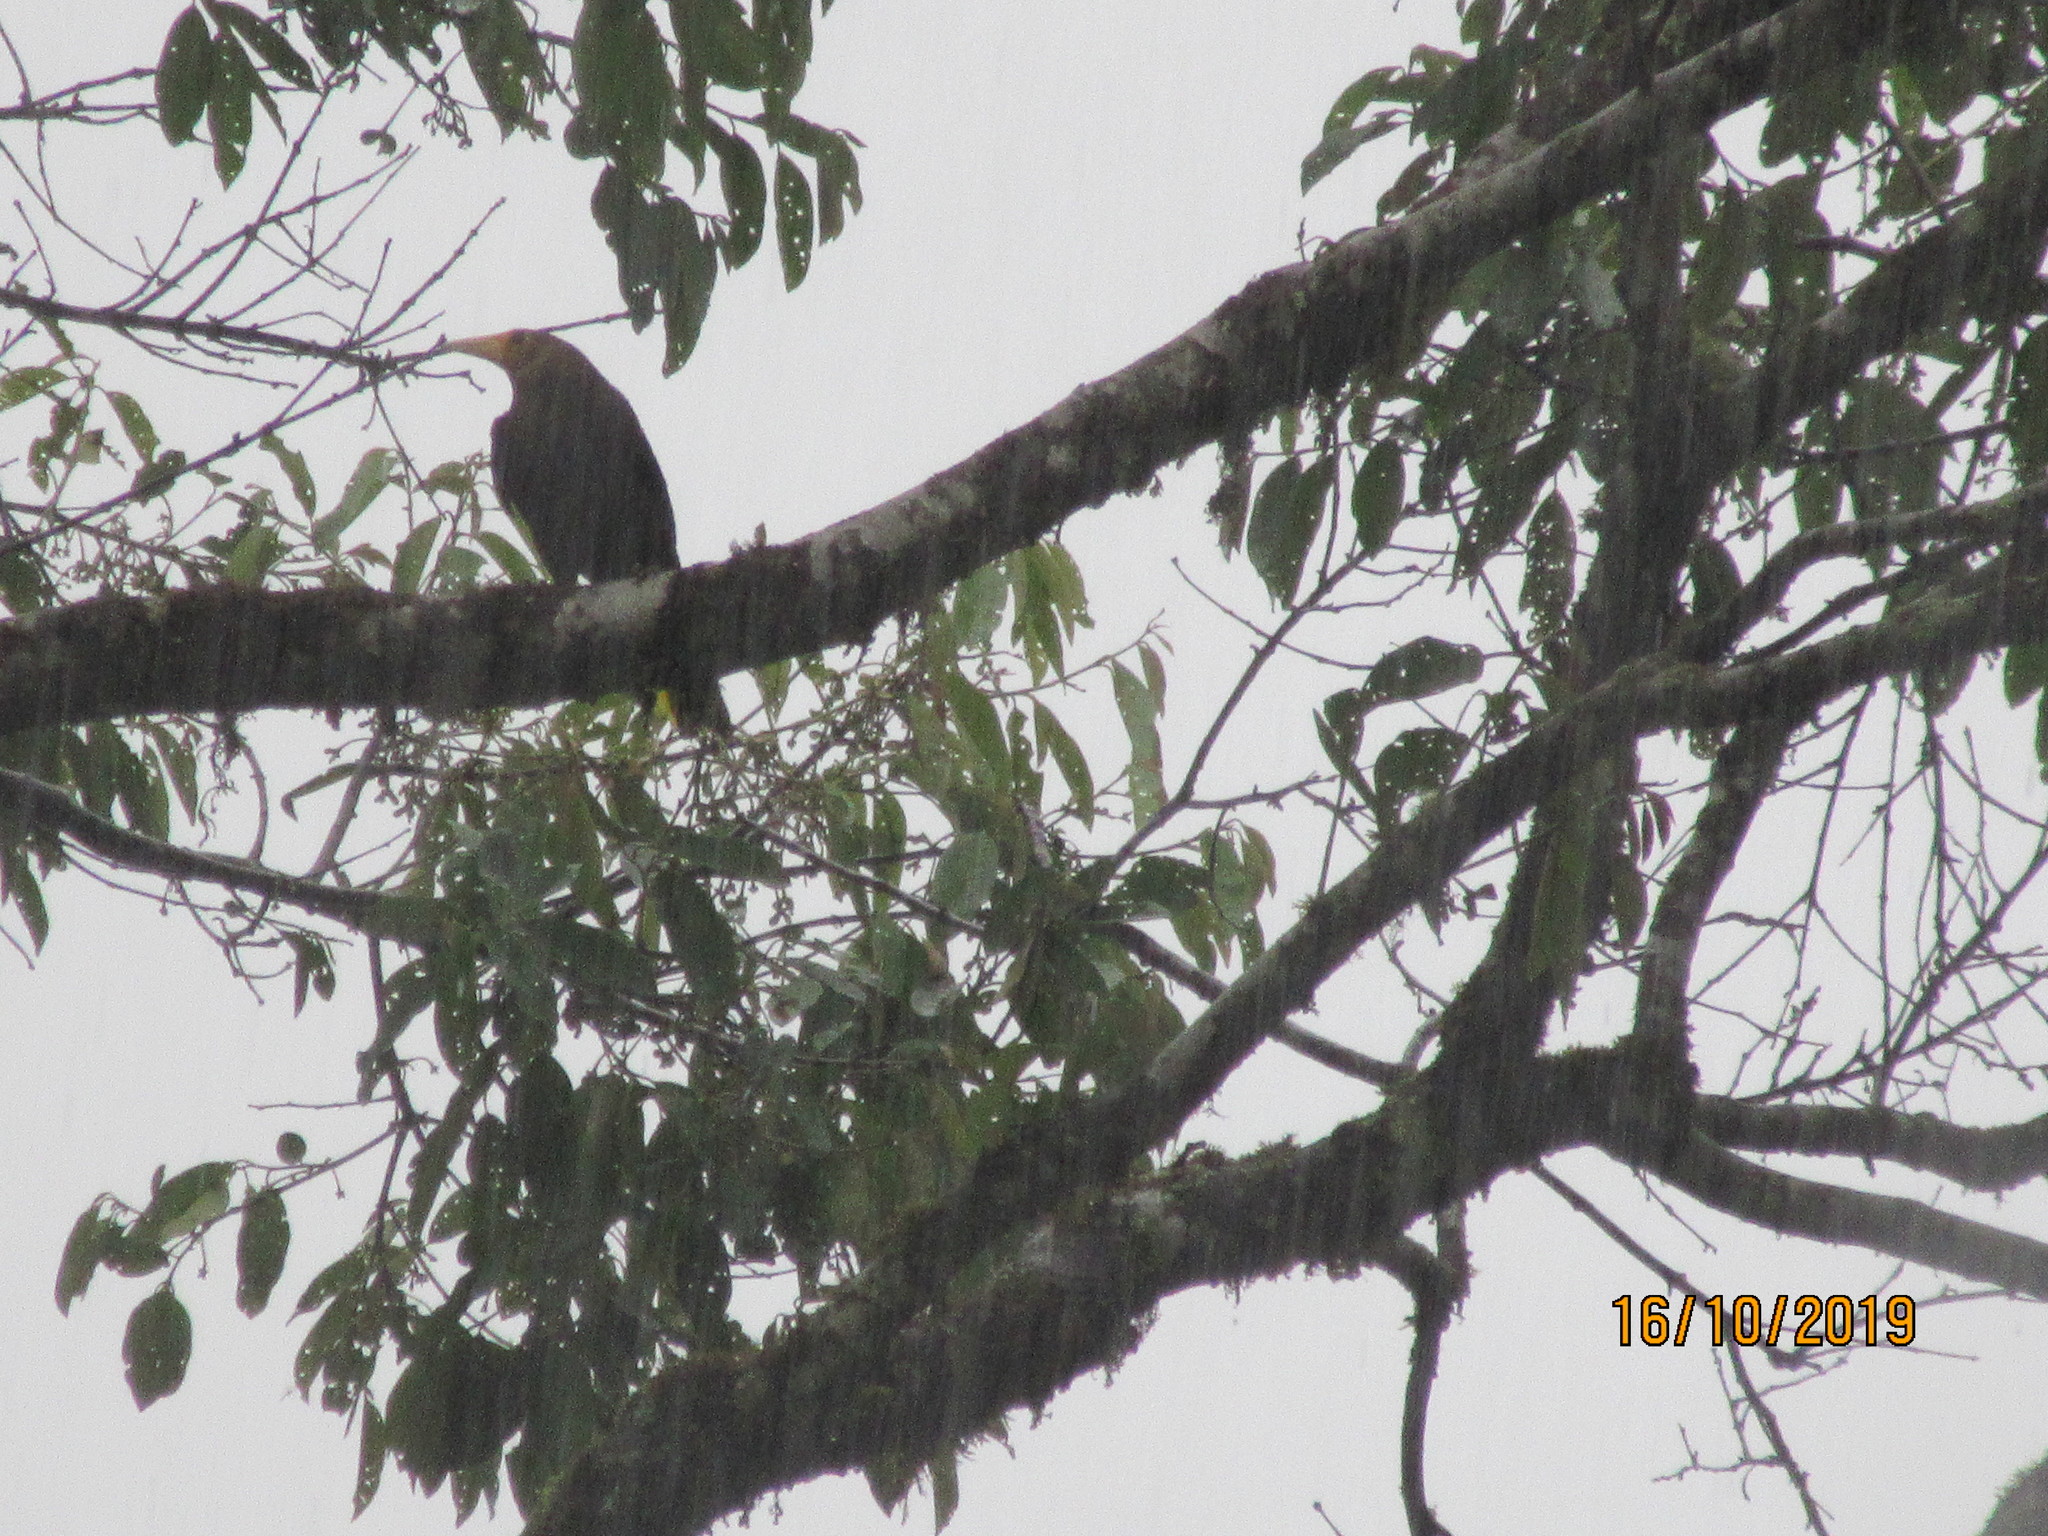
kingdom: Animalia
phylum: Chordata
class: Aves
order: Passeriformes
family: Icteridae
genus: Psarocolius
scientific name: Psarocolius angustifrons
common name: Russet-backed oropendola
